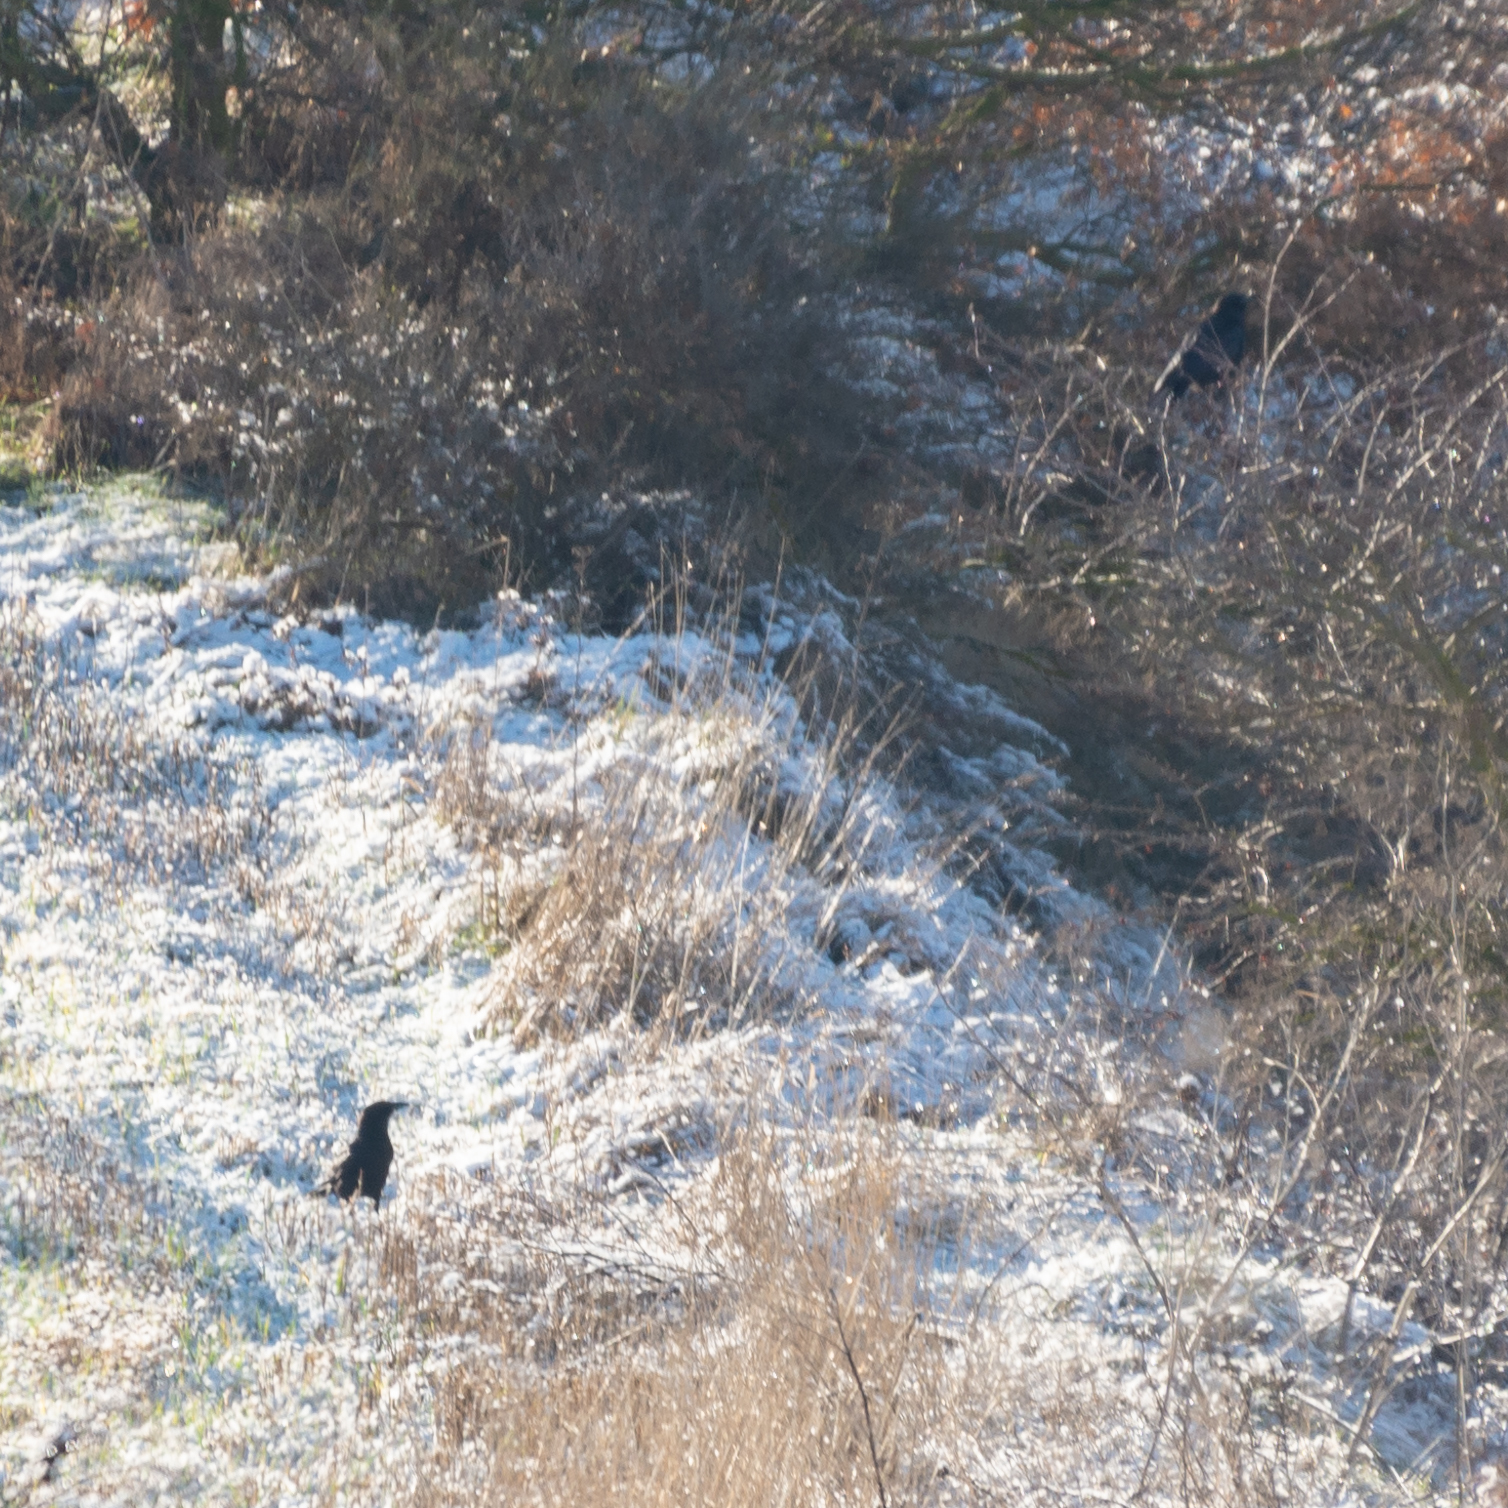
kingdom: Animalia
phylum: Chordata
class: Aves
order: Passeriformes
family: Corvidae
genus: Corvus
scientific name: Corvus corone
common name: Carrion crow
